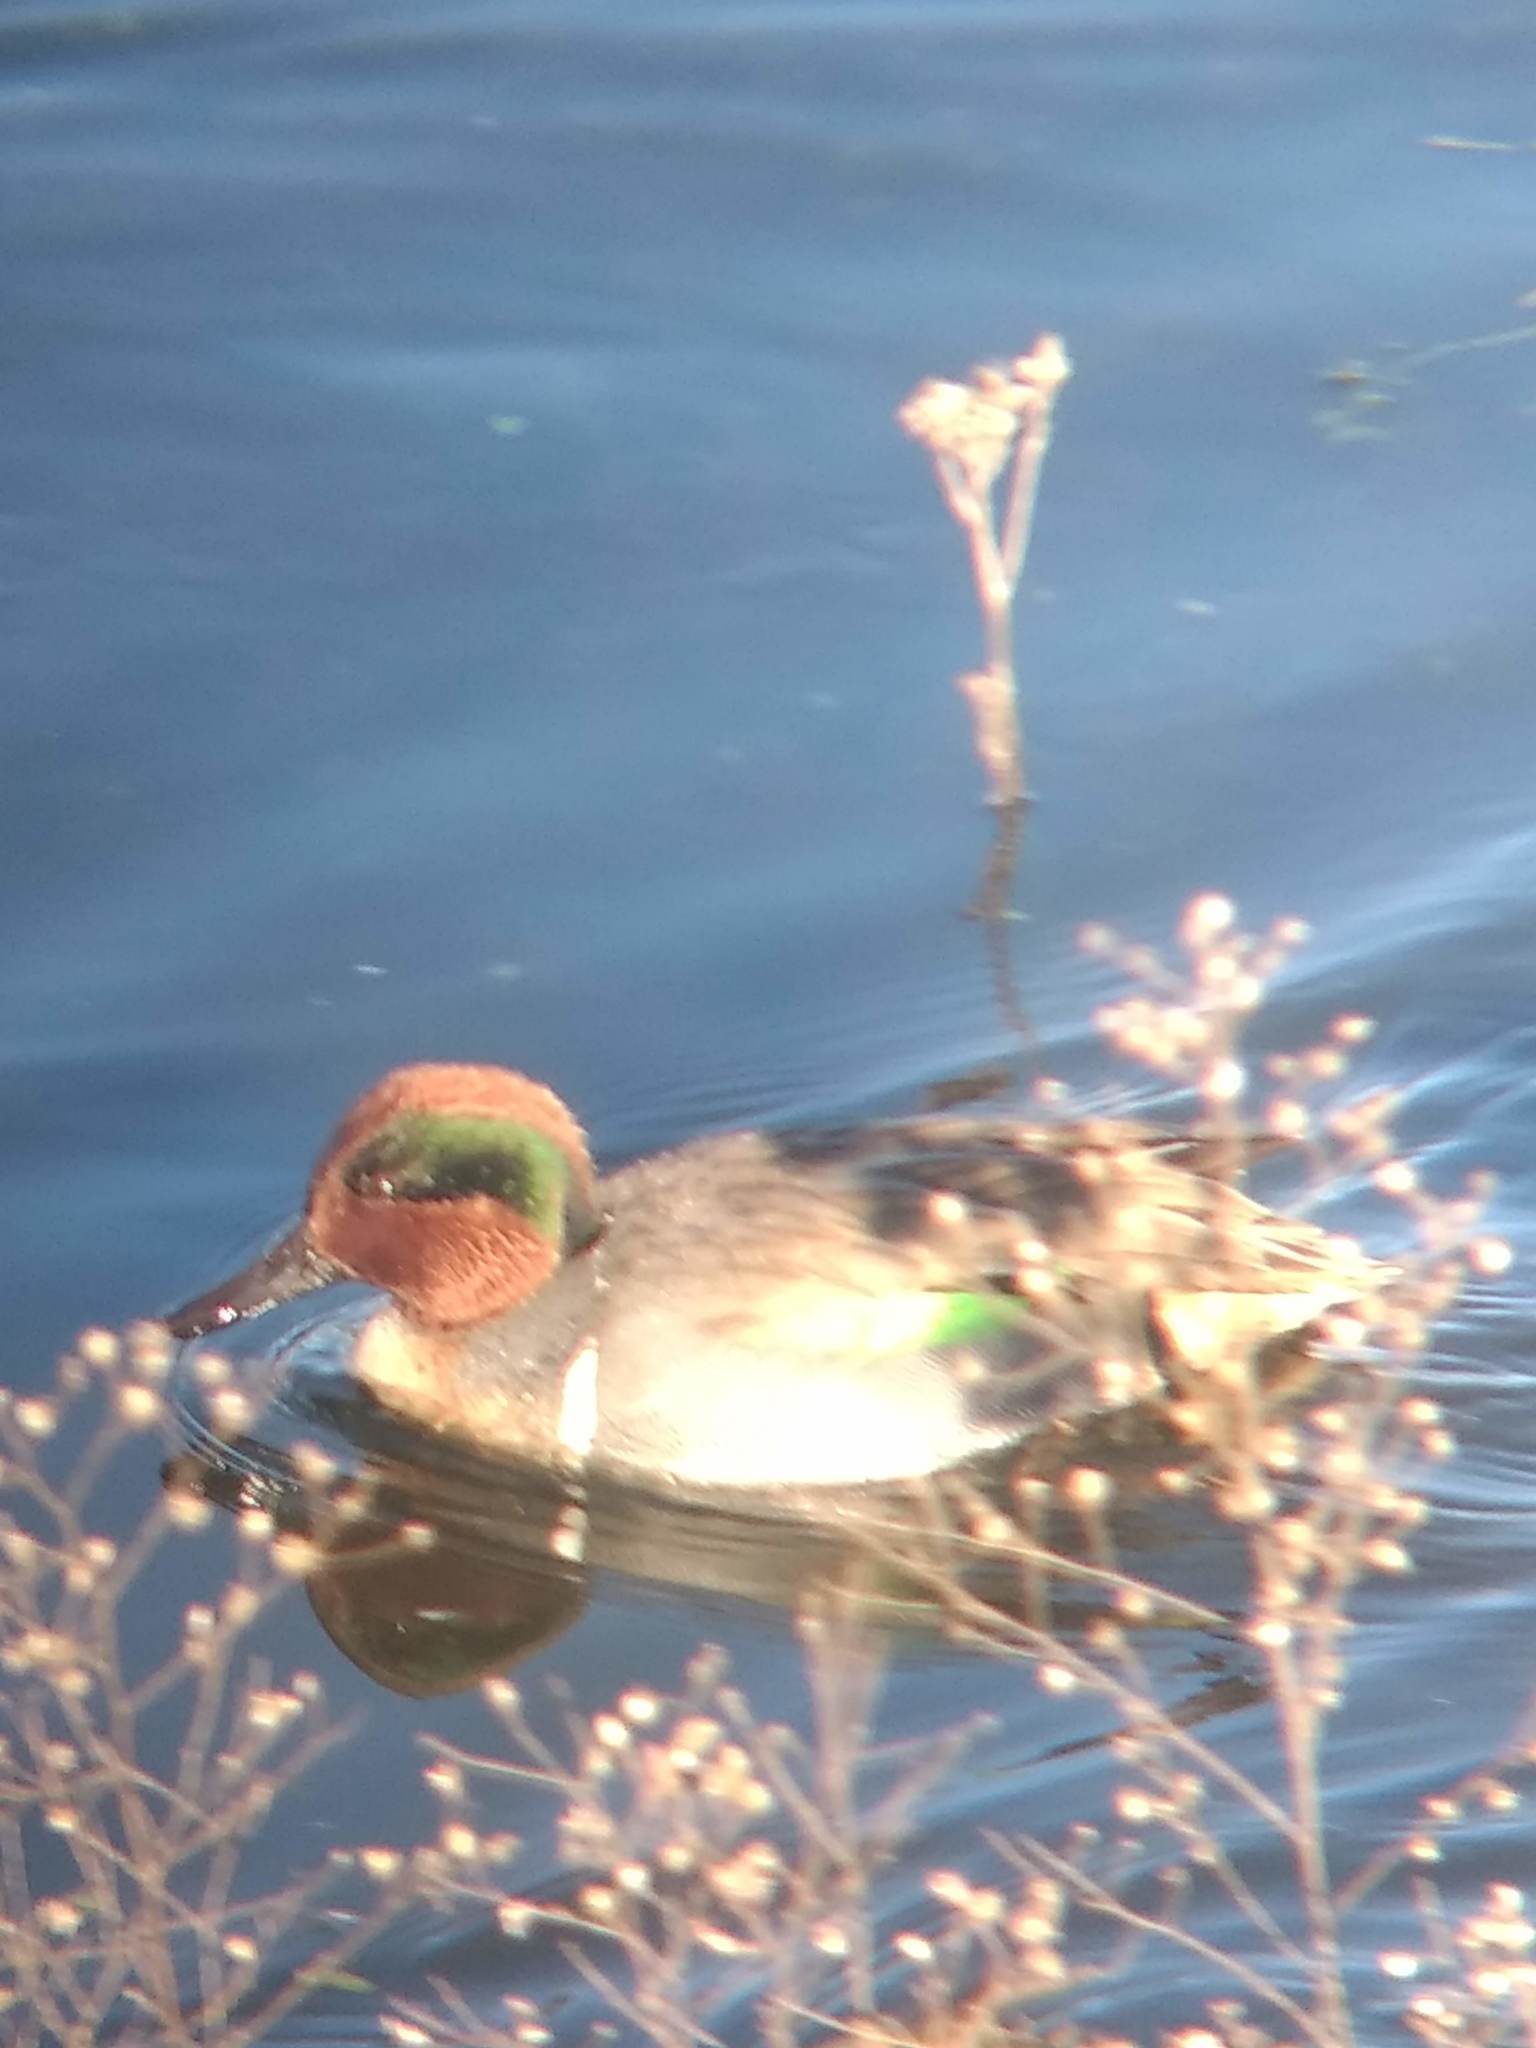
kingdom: Animalia
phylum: Chordata
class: Aves
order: Anseriformes
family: Anatidae
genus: Anas
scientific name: Anas crecca
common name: Eurasian teal
